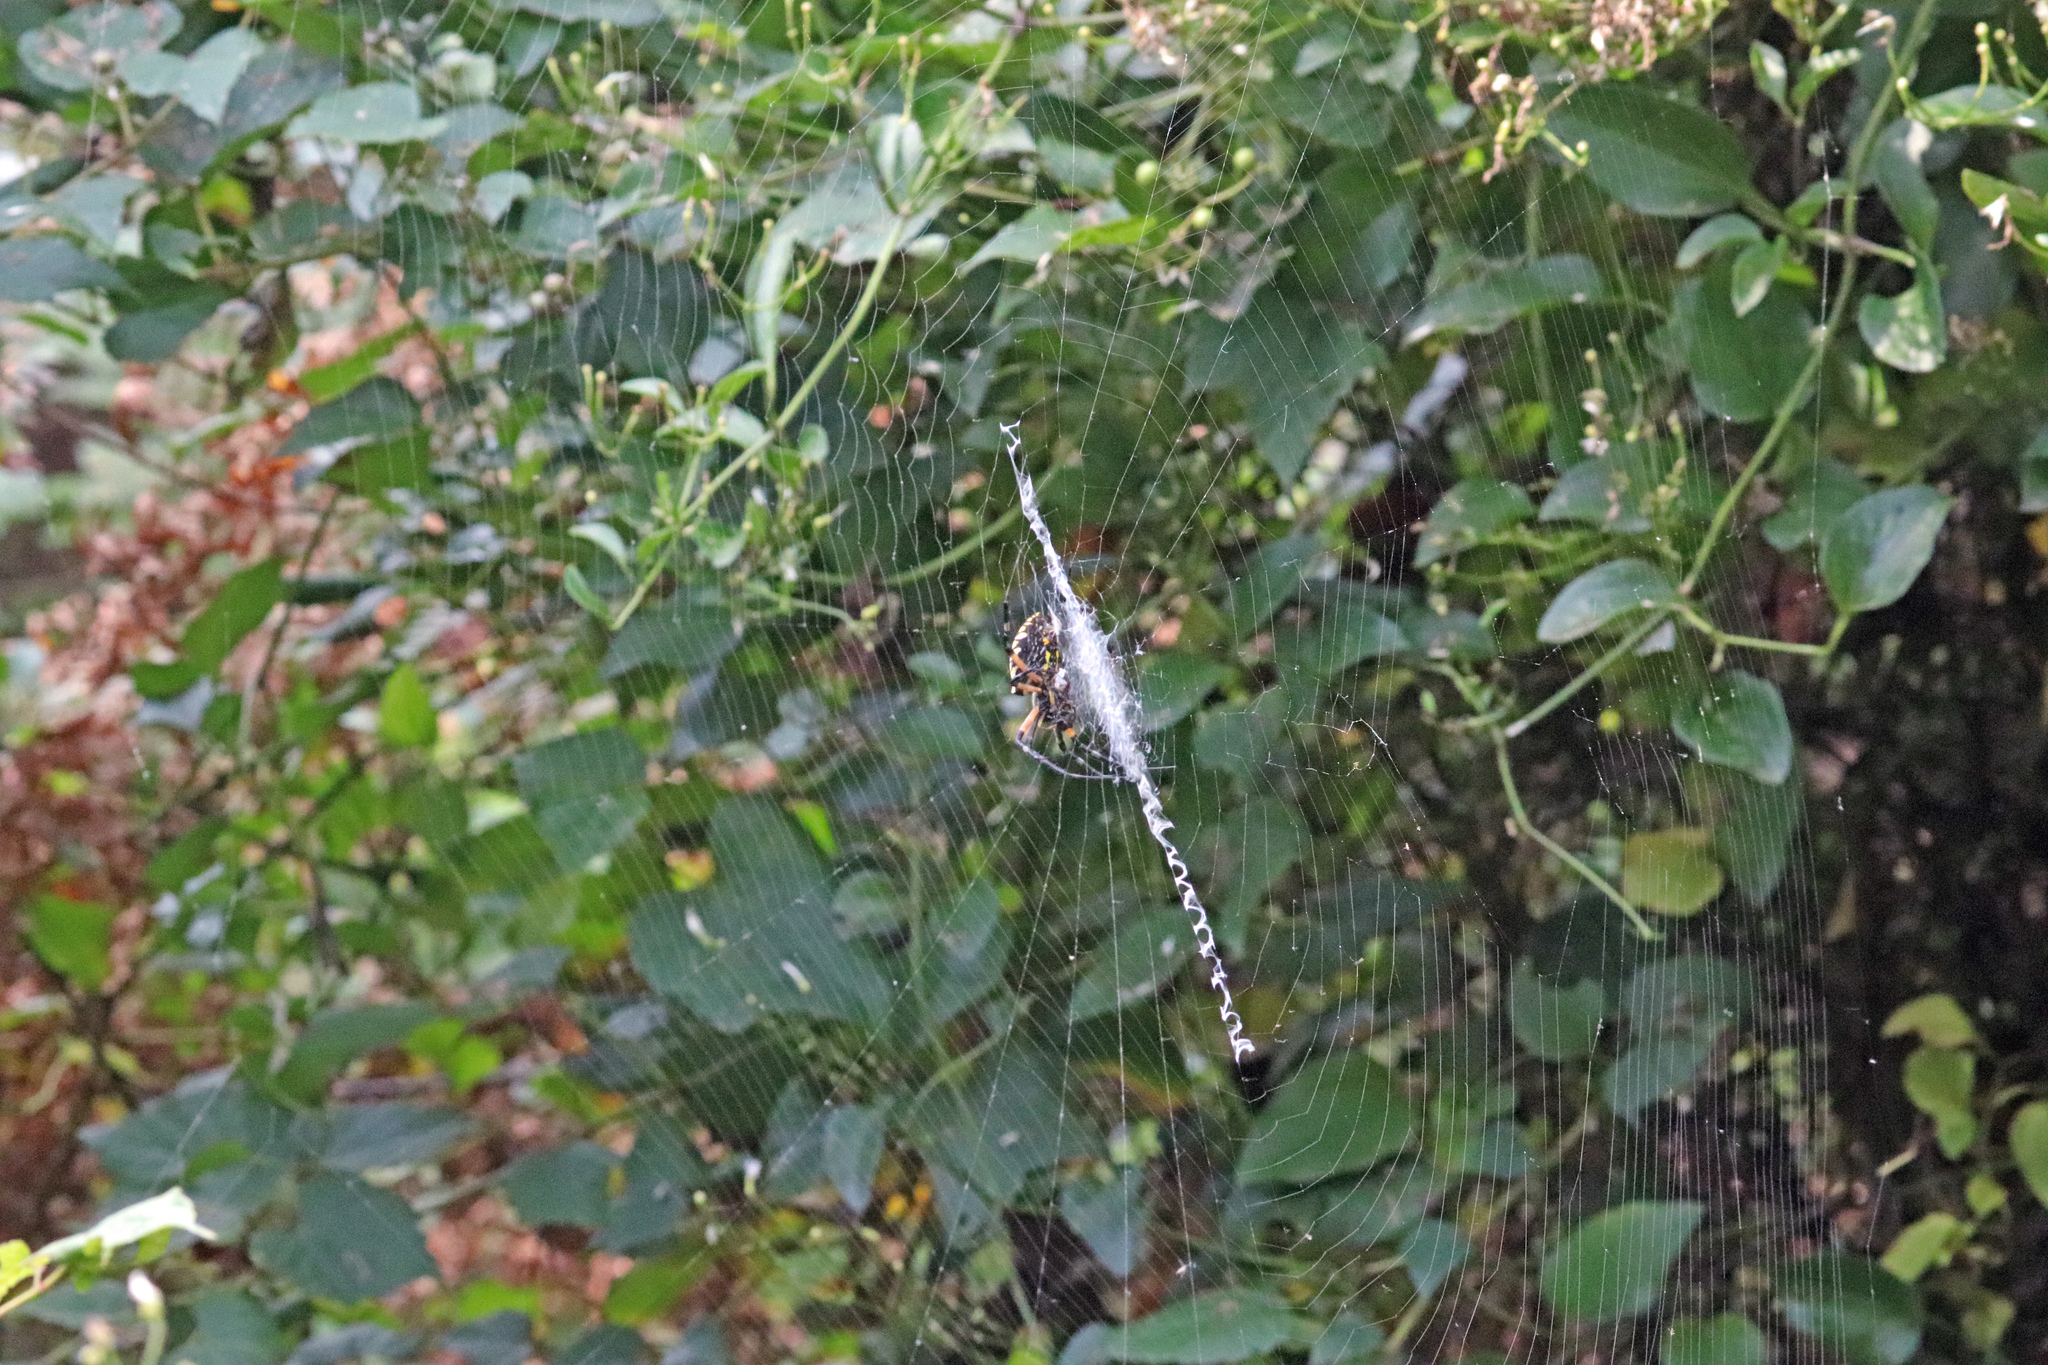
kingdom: Animalia
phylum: Arthropoda
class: Arachnida
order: Araneae
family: Araneidae
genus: Argiope
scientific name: Argiope aurantia
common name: Orb weavers
